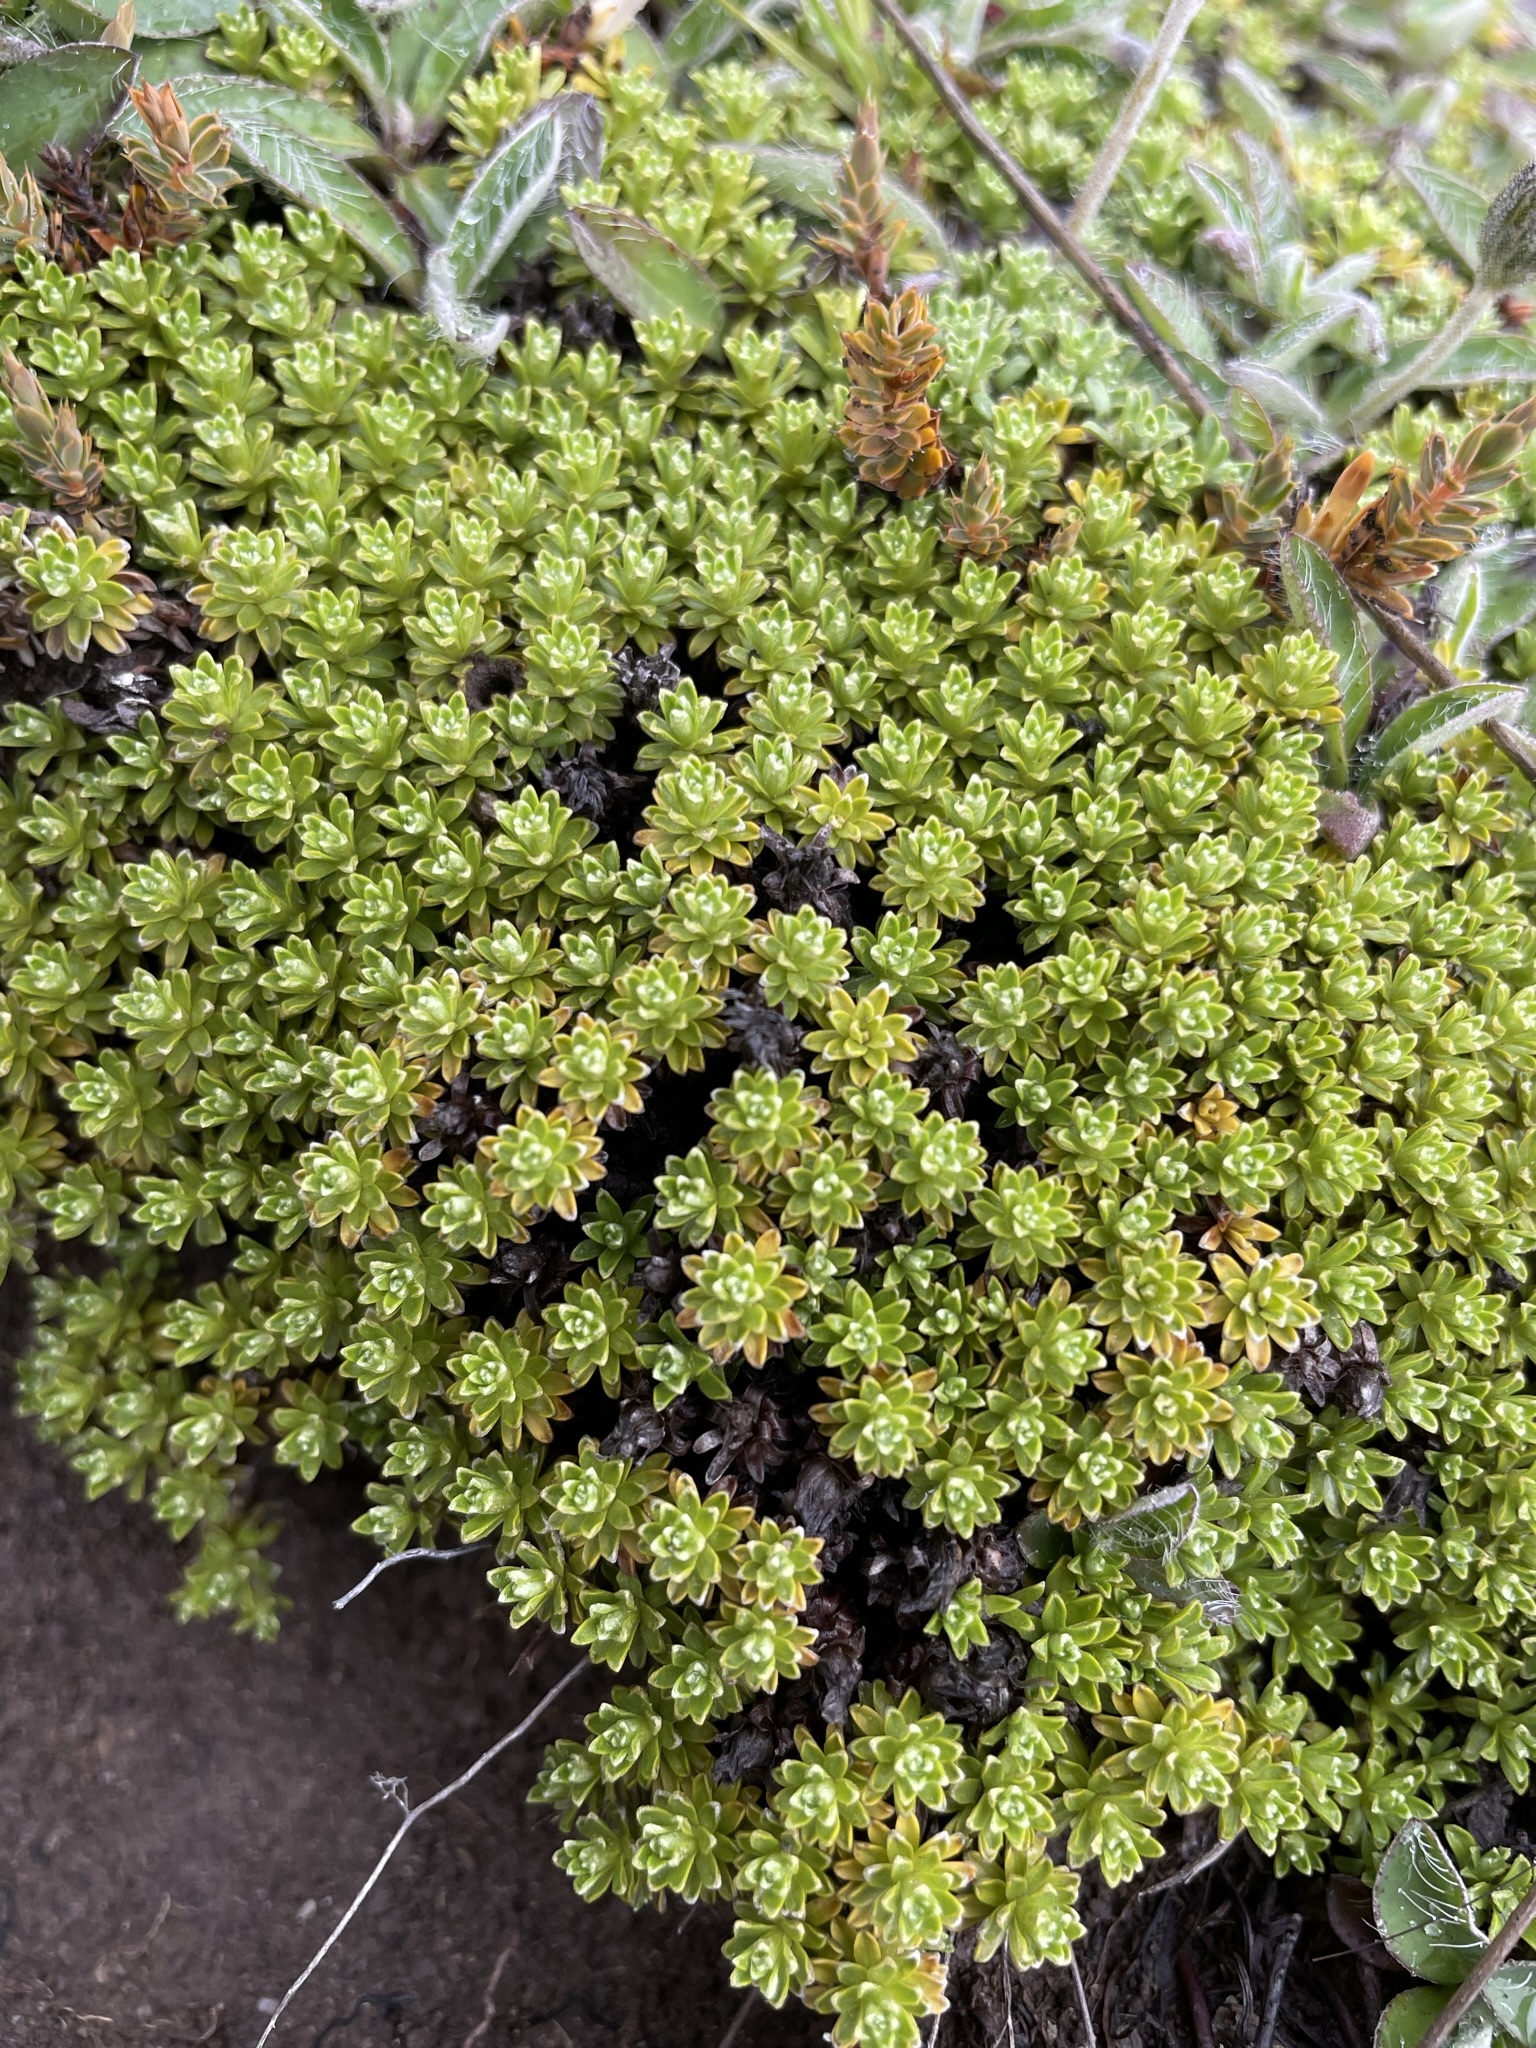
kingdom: Plantae
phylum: Tracheophyta
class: Magnoliopsida
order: Asterales
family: Asteraceae
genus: Raoulia
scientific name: Raoulia subsericea
